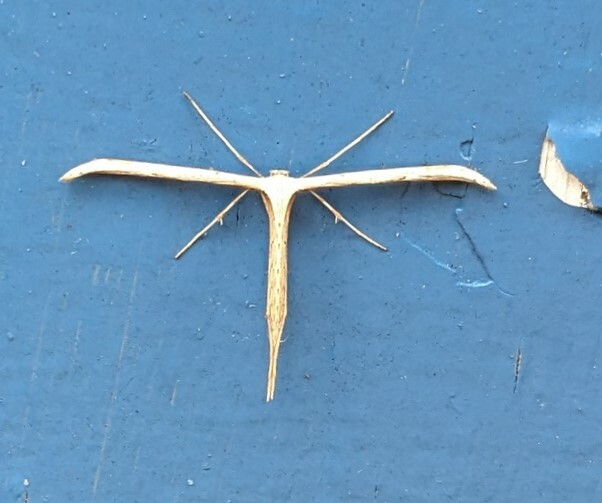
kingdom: Animalia
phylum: Arthropoda
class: Insecta
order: Lepidoptera
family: Pterophoridae
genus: Emmelina
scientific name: Emmelina monodactyla
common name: Common plume
